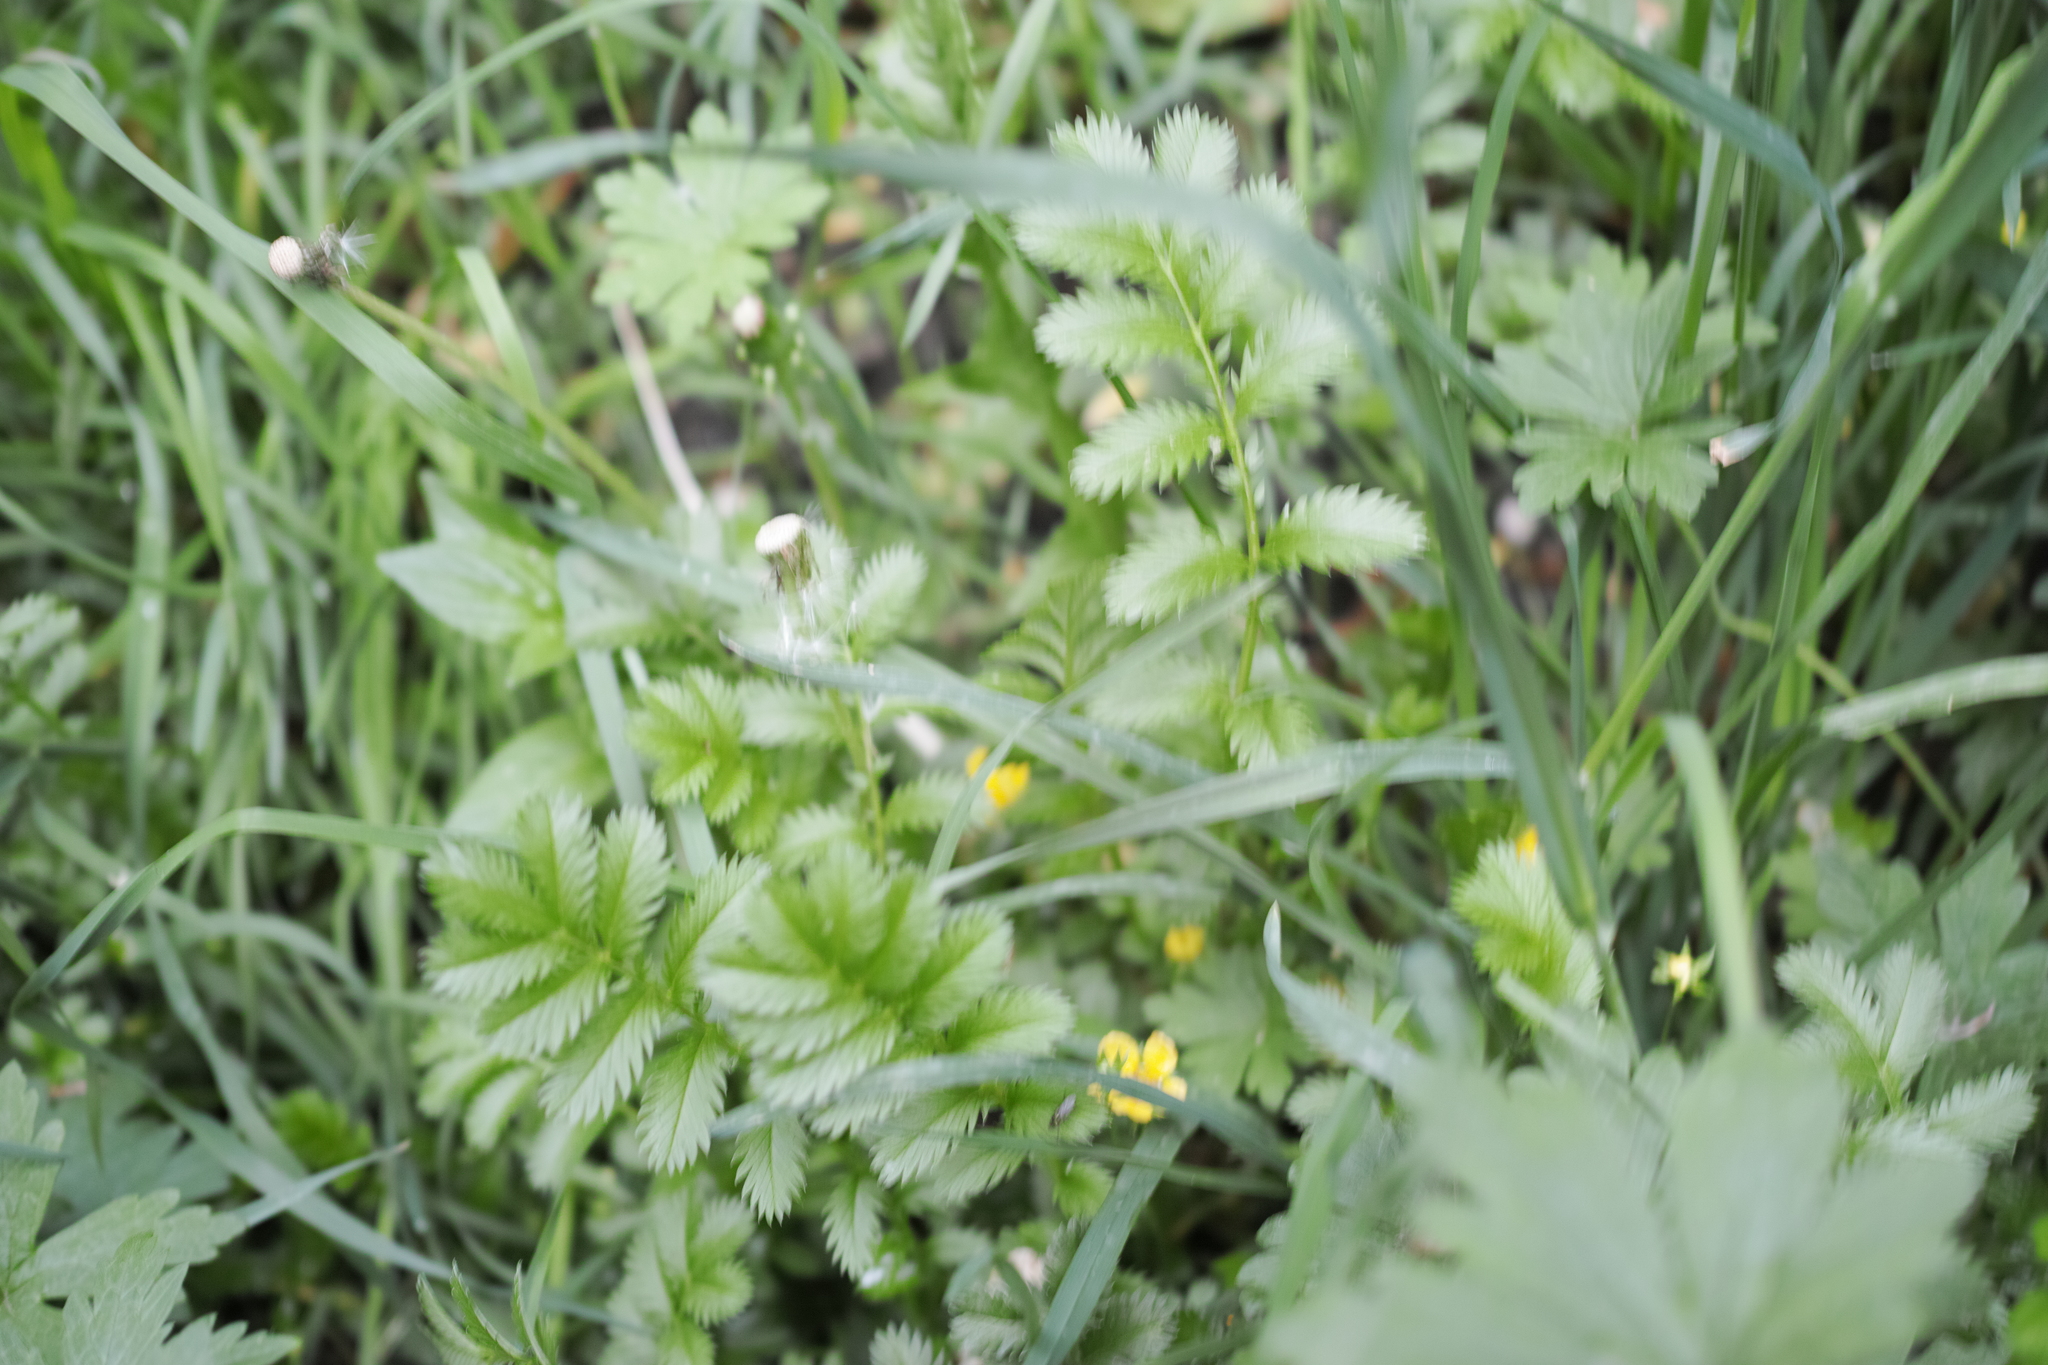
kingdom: Plantae
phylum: Tracheophyta
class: Magnoliopsida
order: Rosales
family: Rosaceae
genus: Argentina
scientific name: Argentina anserina
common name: Common silverweed
